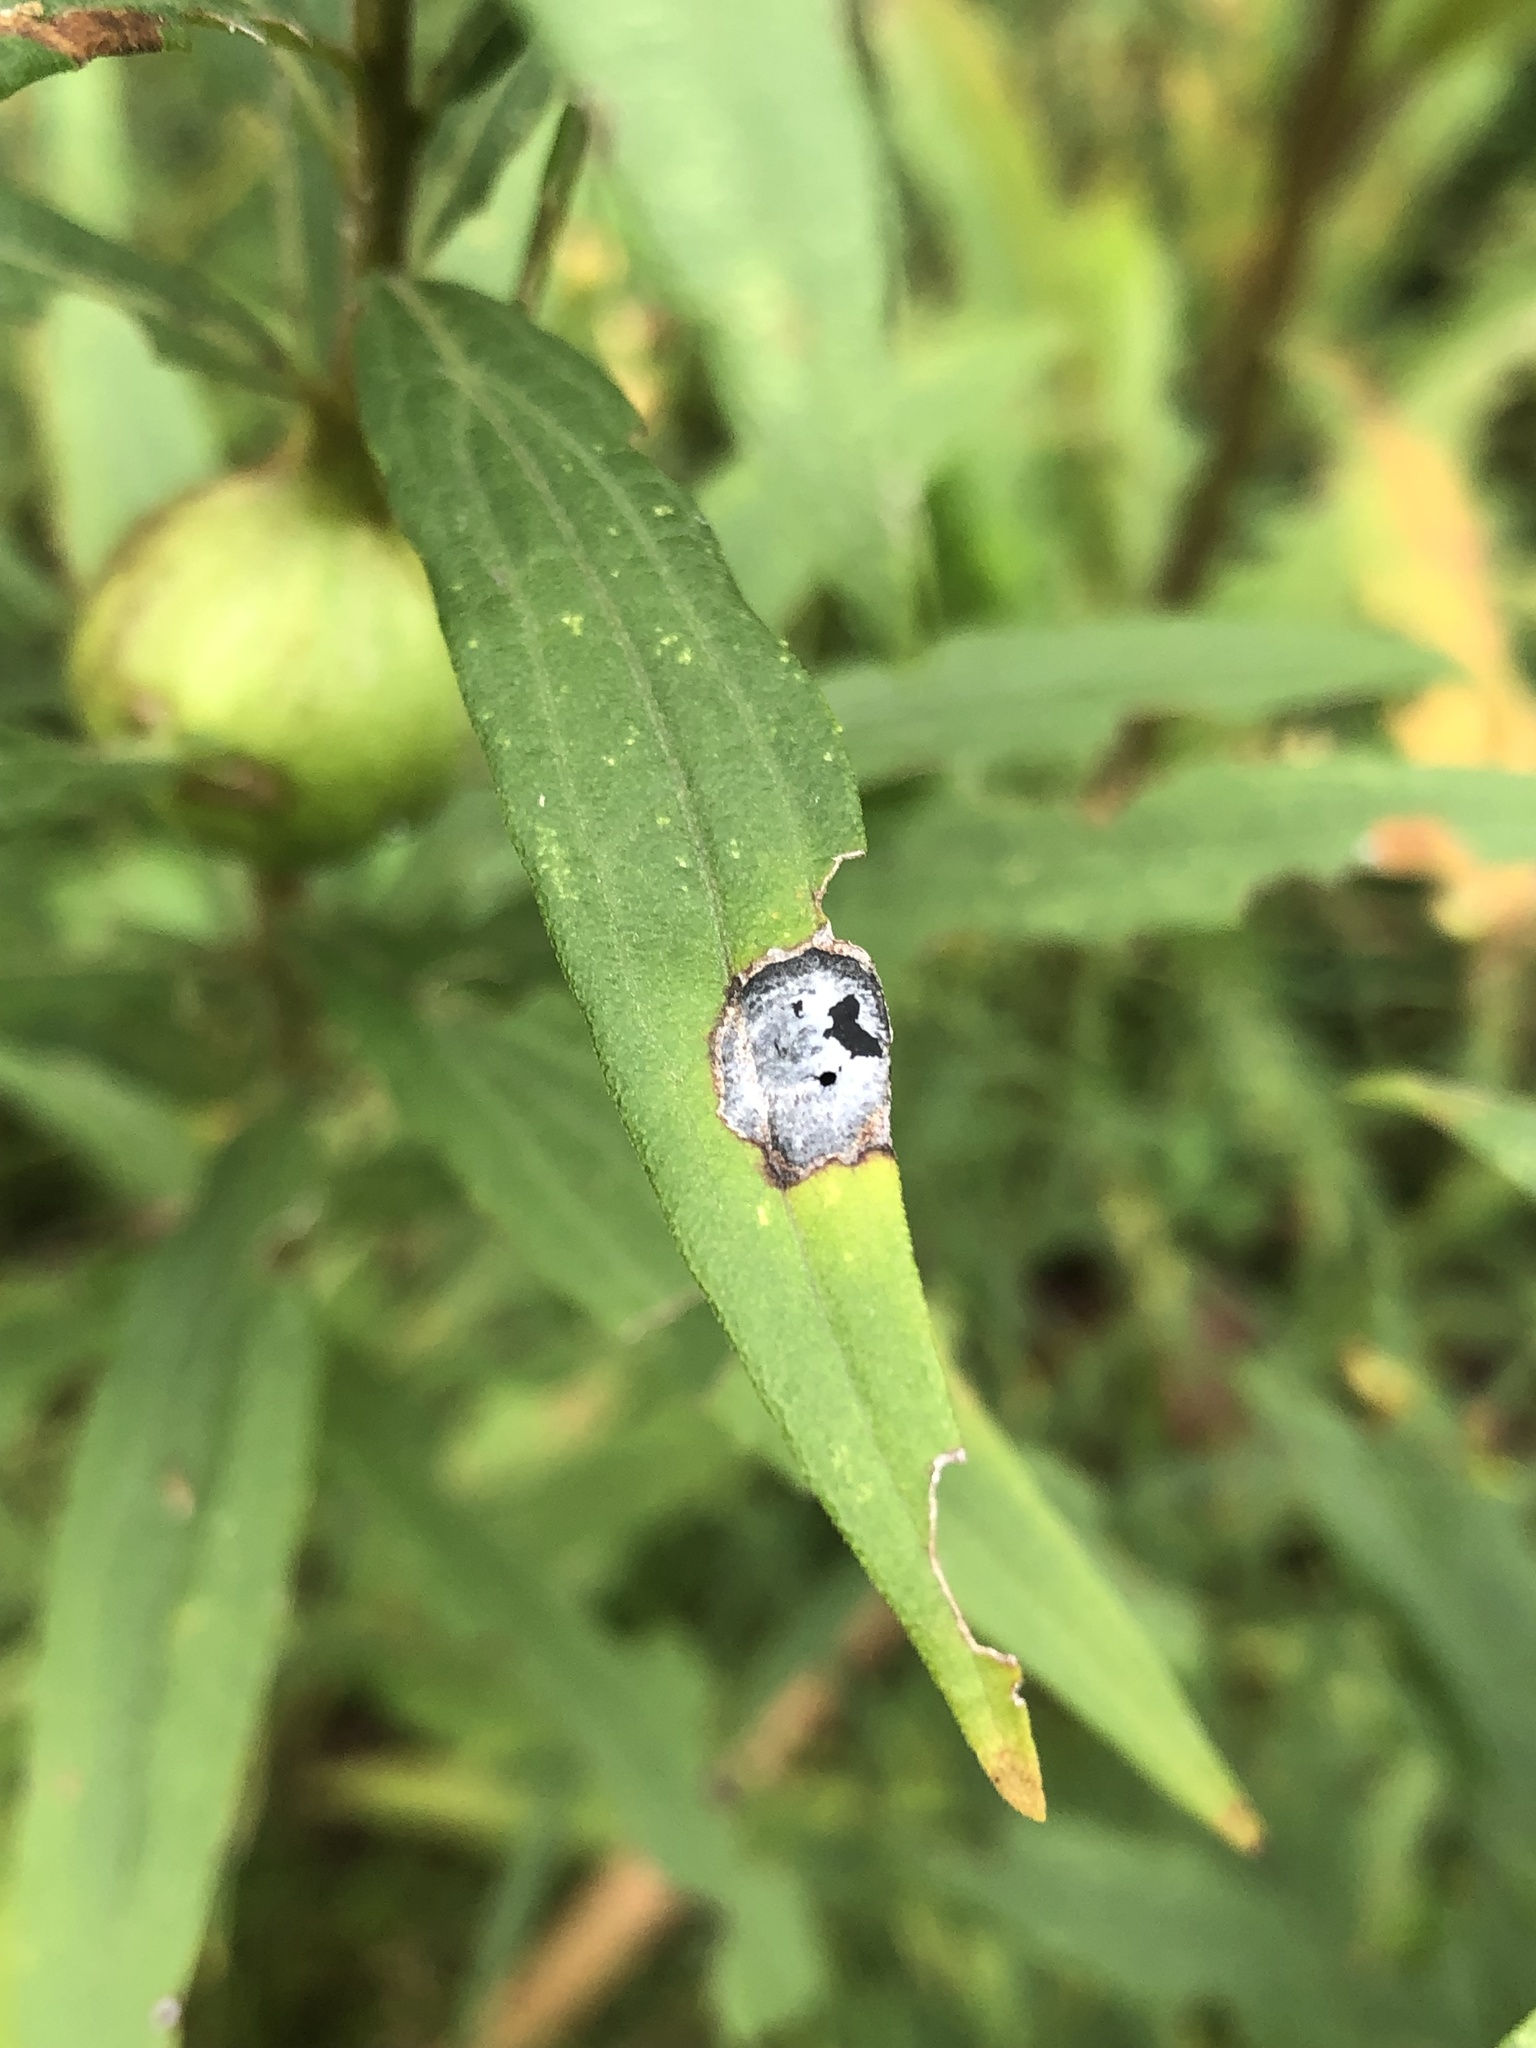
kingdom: Animalia
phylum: Arthropoda
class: Insecta
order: Diptera
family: Cecidomyiidae
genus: Asteromyia
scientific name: Asteromyia carbonifera
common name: Carbonifera goldenrod gall midge
